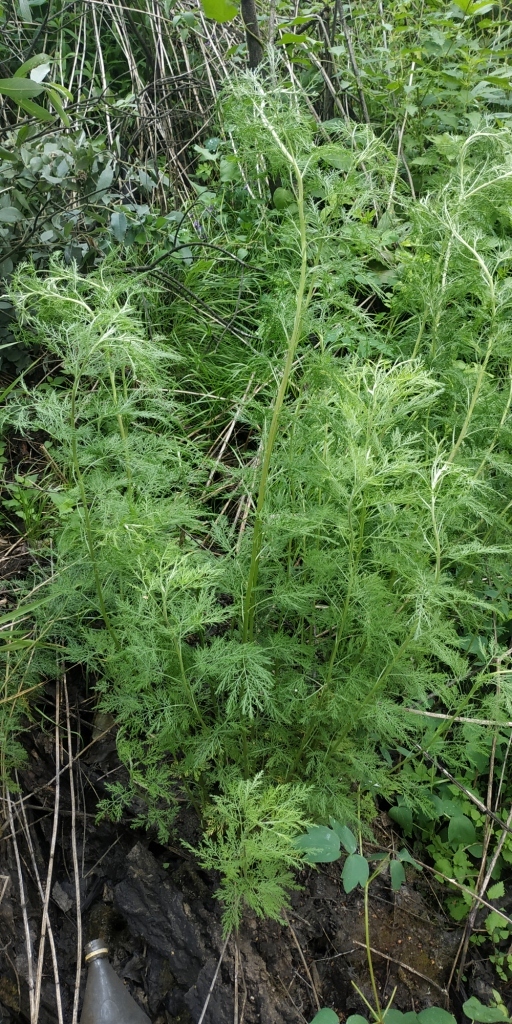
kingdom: Plantae
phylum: Tracheophyta
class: Magnoliopsida
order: Asterales
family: Asteraceae
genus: Artemisia
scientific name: Artemisia abrotanum
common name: Southernwood
